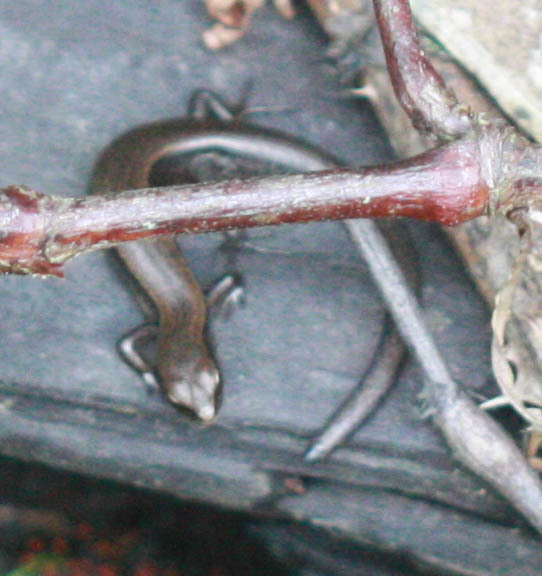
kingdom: Animalia
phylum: Chordata
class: Squamata
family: Scincidae
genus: Scincella
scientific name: Scincella lateralis
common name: Ground skink
